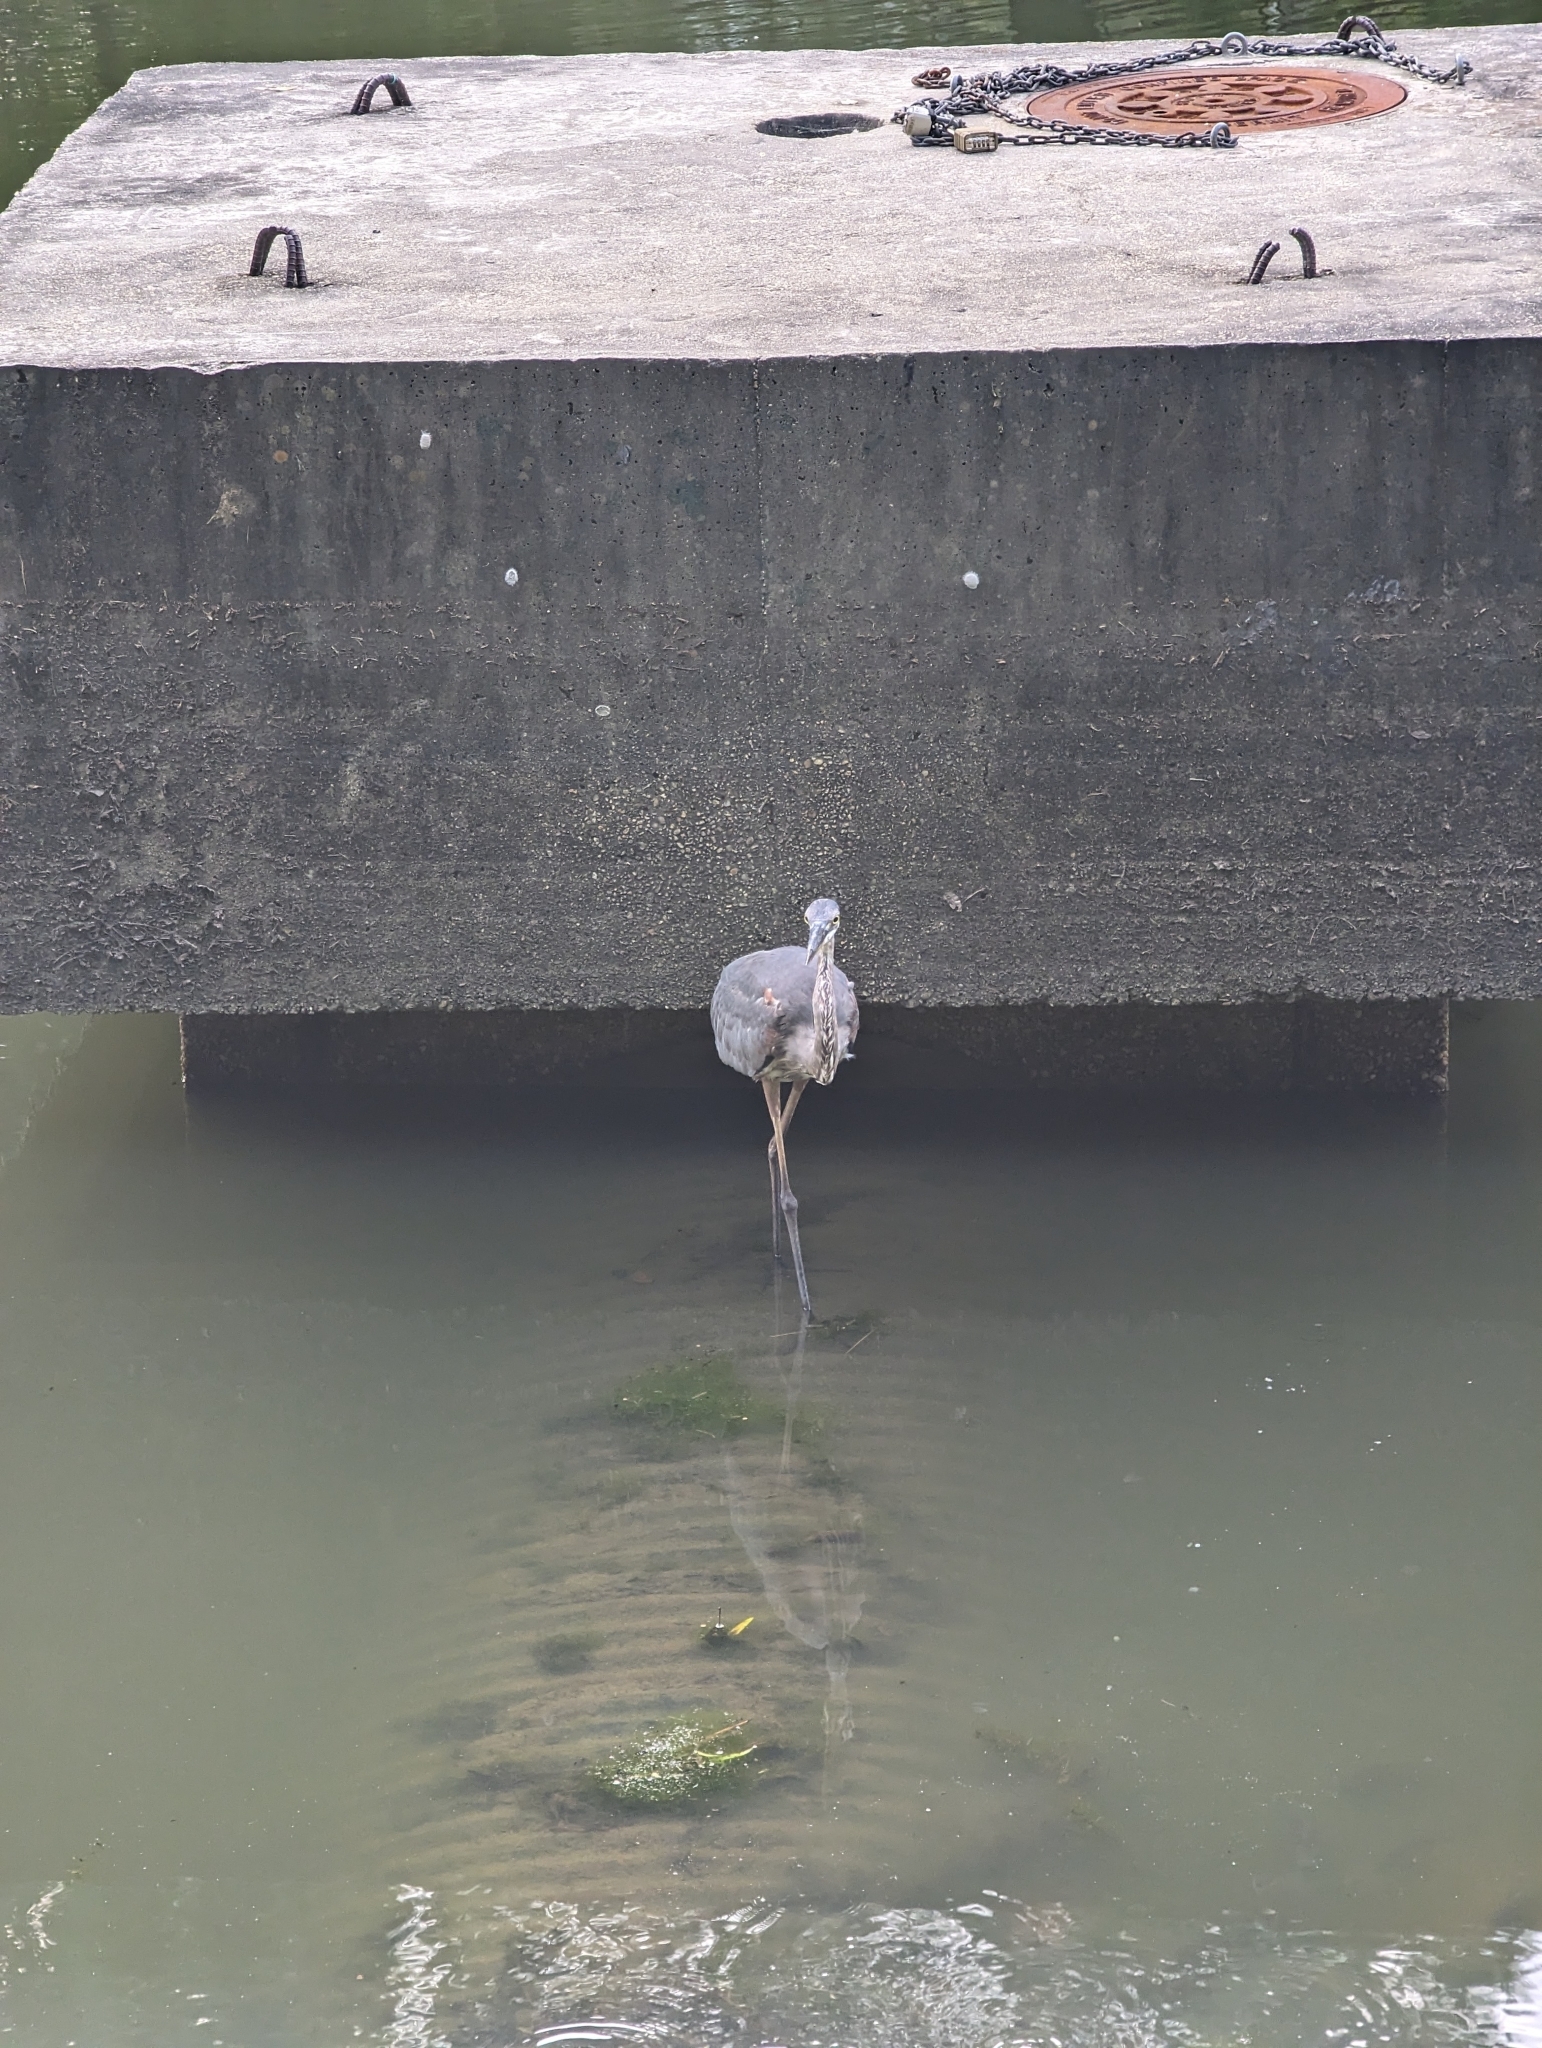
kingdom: Animalia
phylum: Chordata
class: Aves
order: Pelecaniformes
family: Ardeidae
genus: Ardea
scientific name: Ardea herodias
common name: Great blue heron
